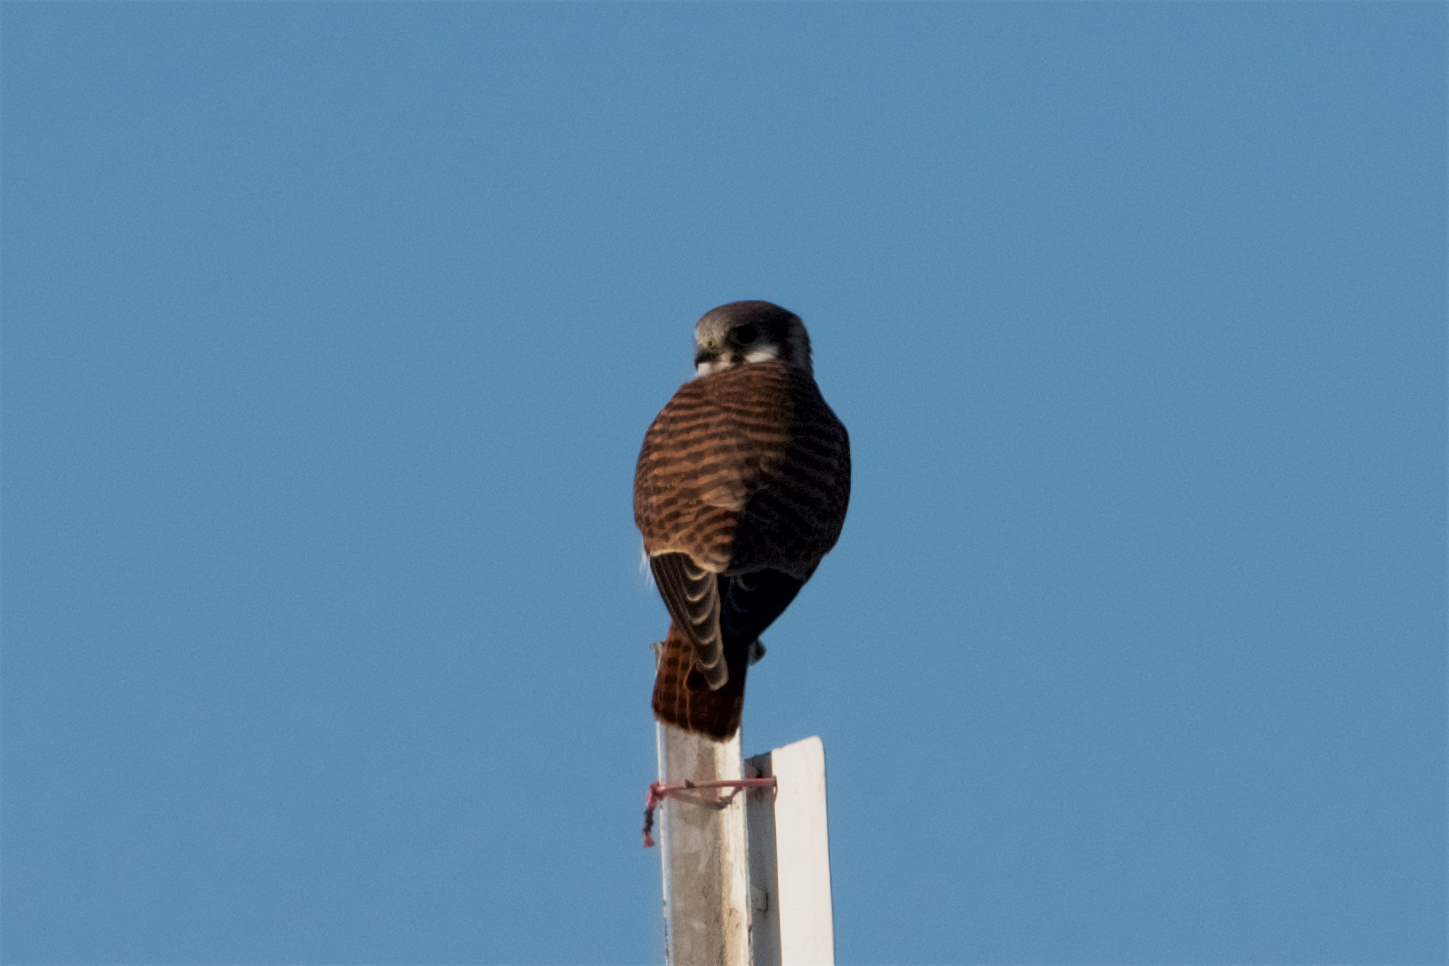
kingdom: Animalia
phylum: Chordata
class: Aves
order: Falconiformes
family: Falconidae
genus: Falco
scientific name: Falco sparverius
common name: American kestrel
